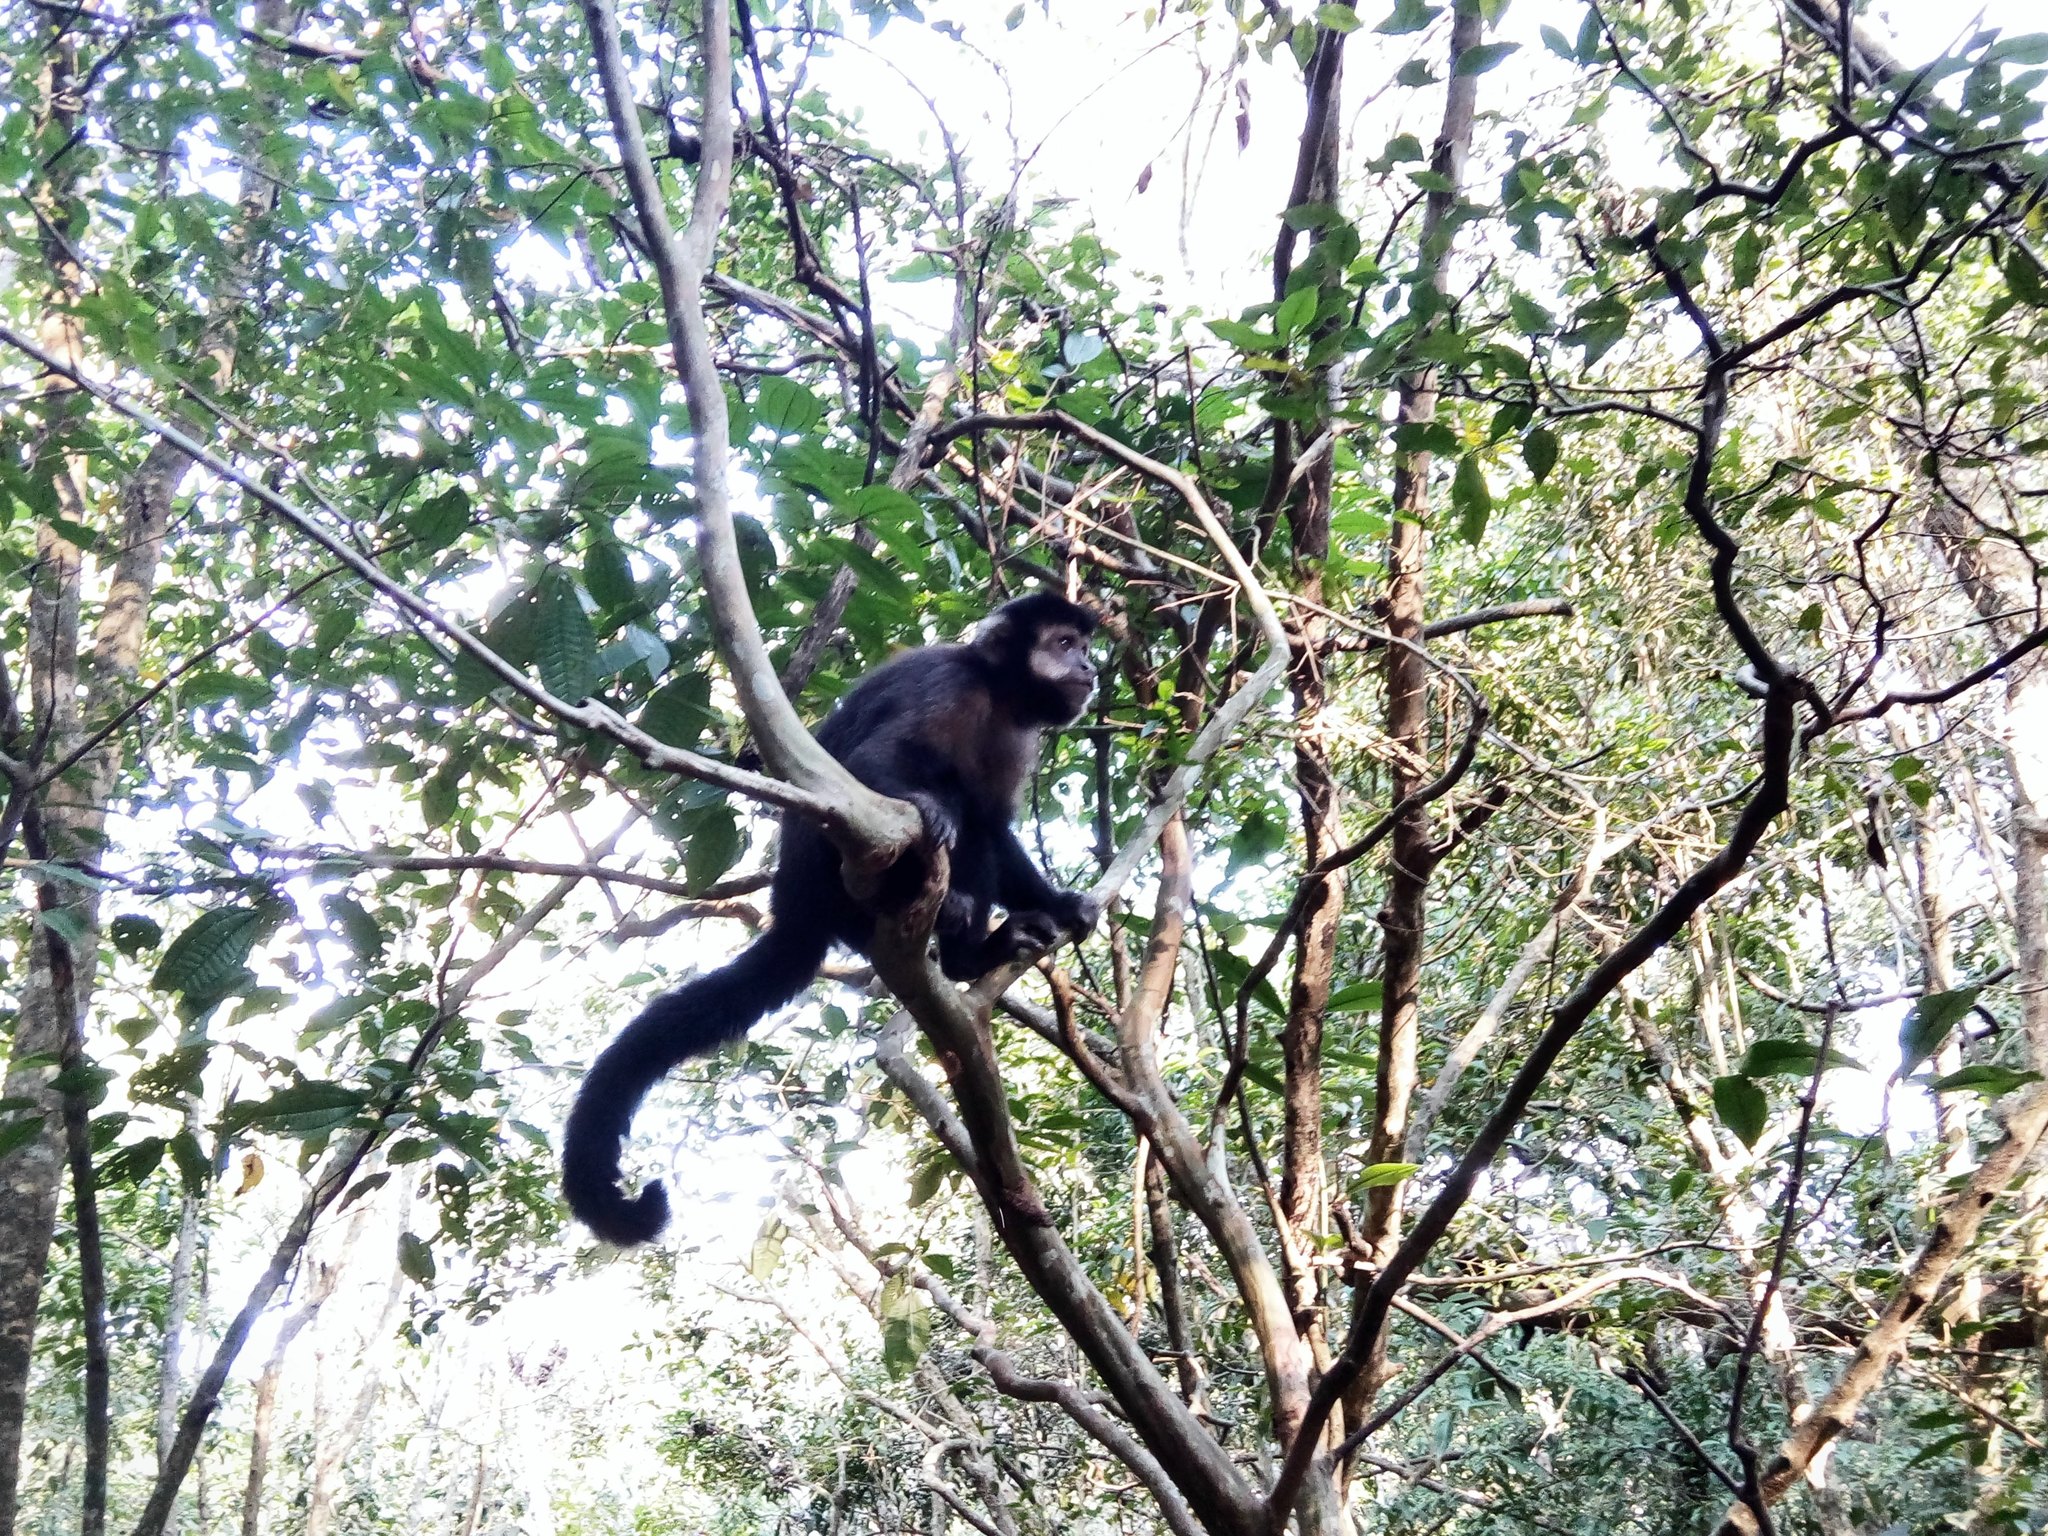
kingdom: Animalia
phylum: Chordata
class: Mammalia
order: Primates
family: Cebidae
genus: Sapajus
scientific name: Sapajus nigritus
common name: Black capuchin
